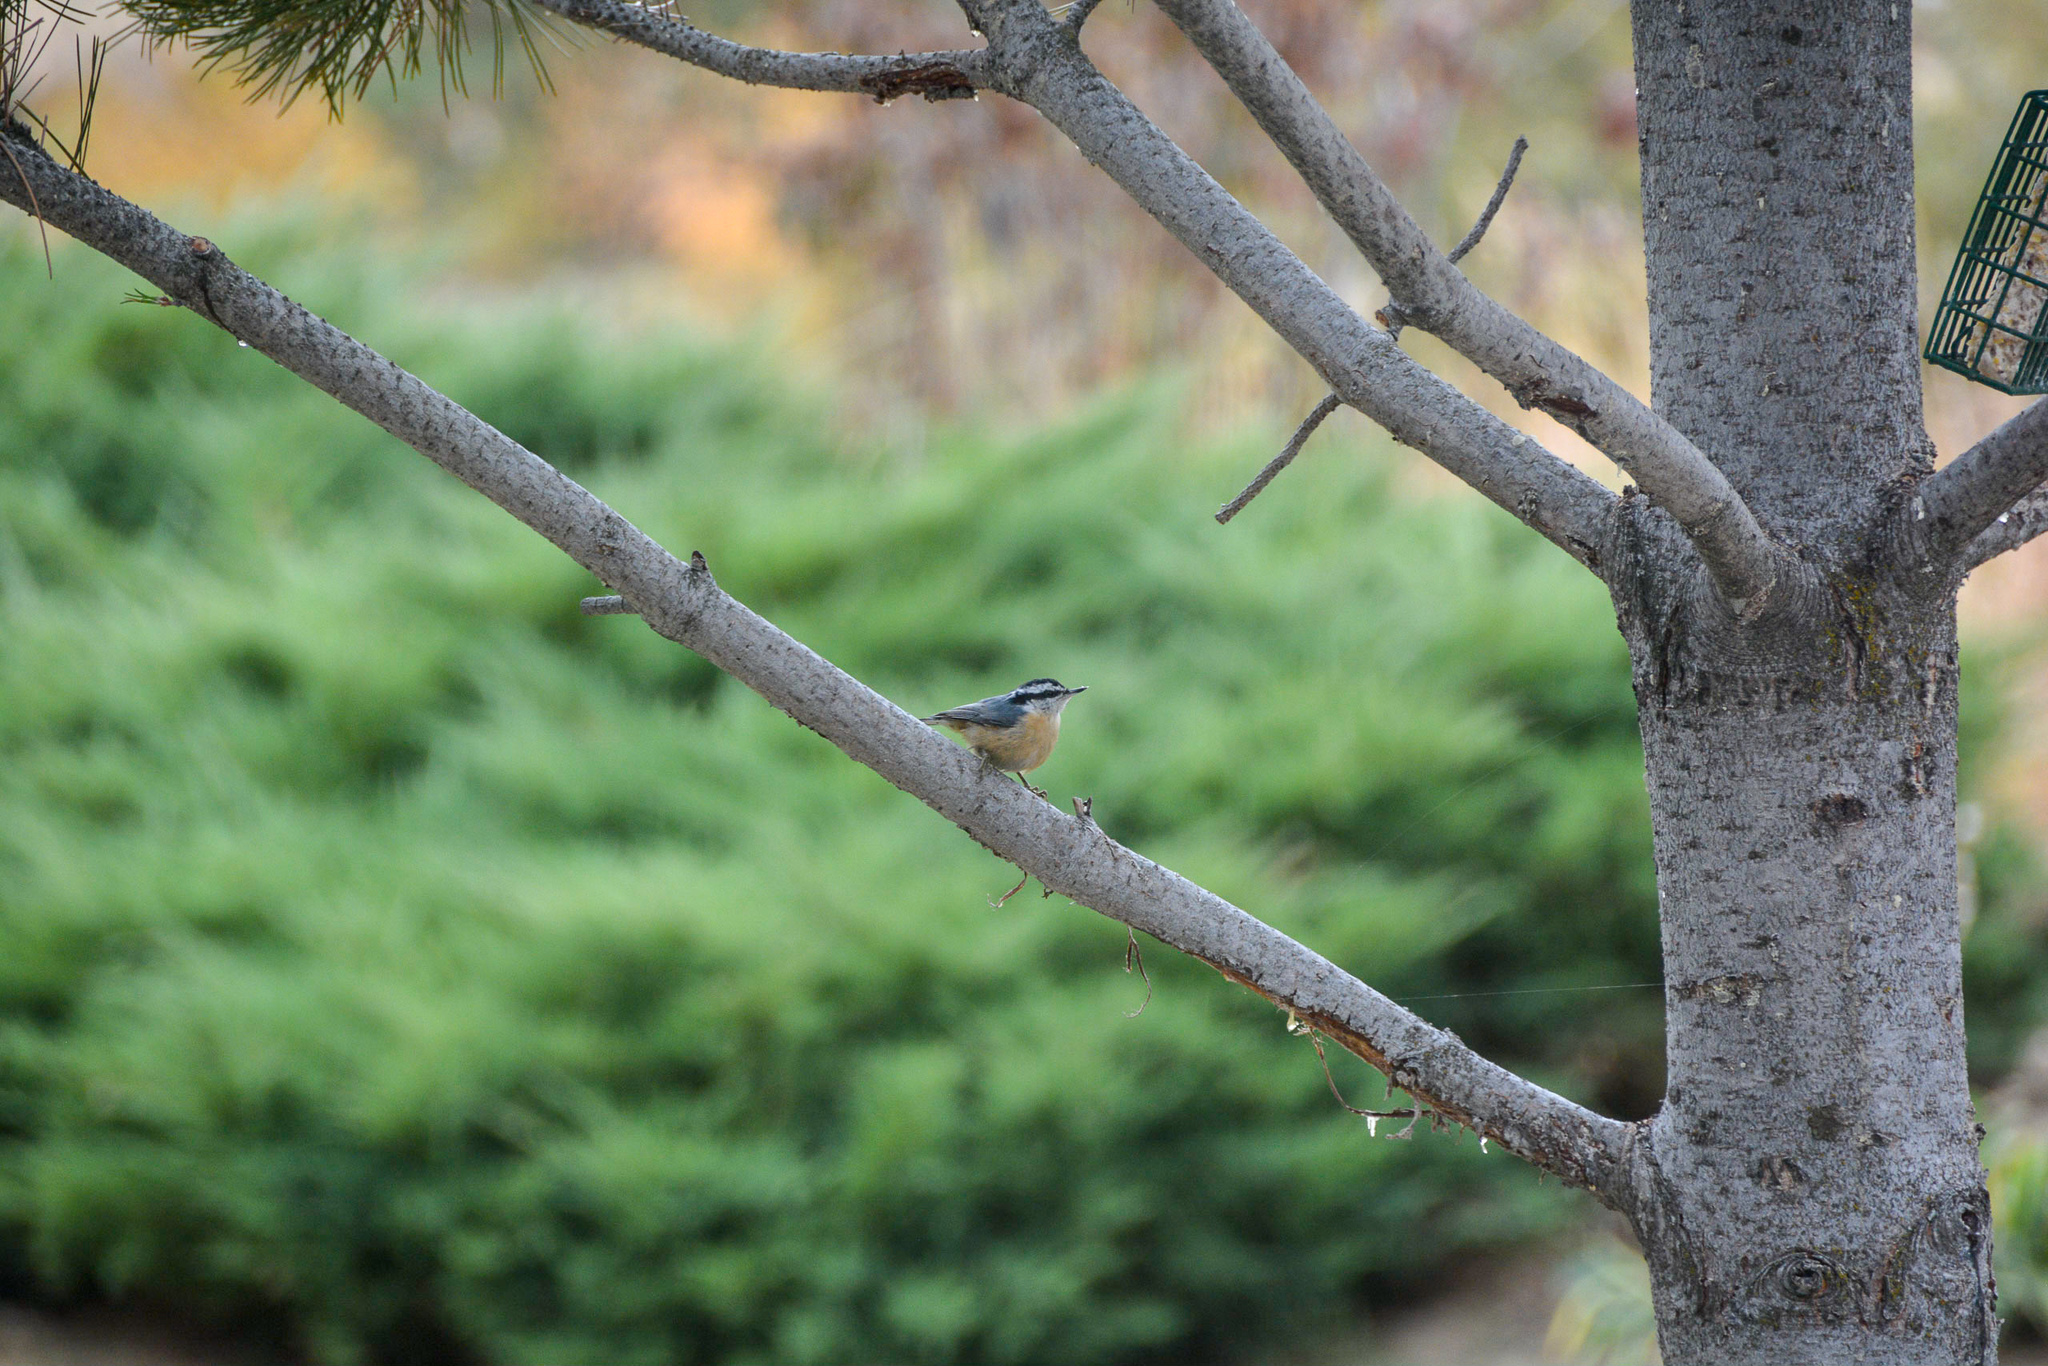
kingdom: Animalia
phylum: Chordata
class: Aves
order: Passeriformes
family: Sittidae
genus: Sitta
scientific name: Sitta canadensis
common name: Red-breasted nuthatch
